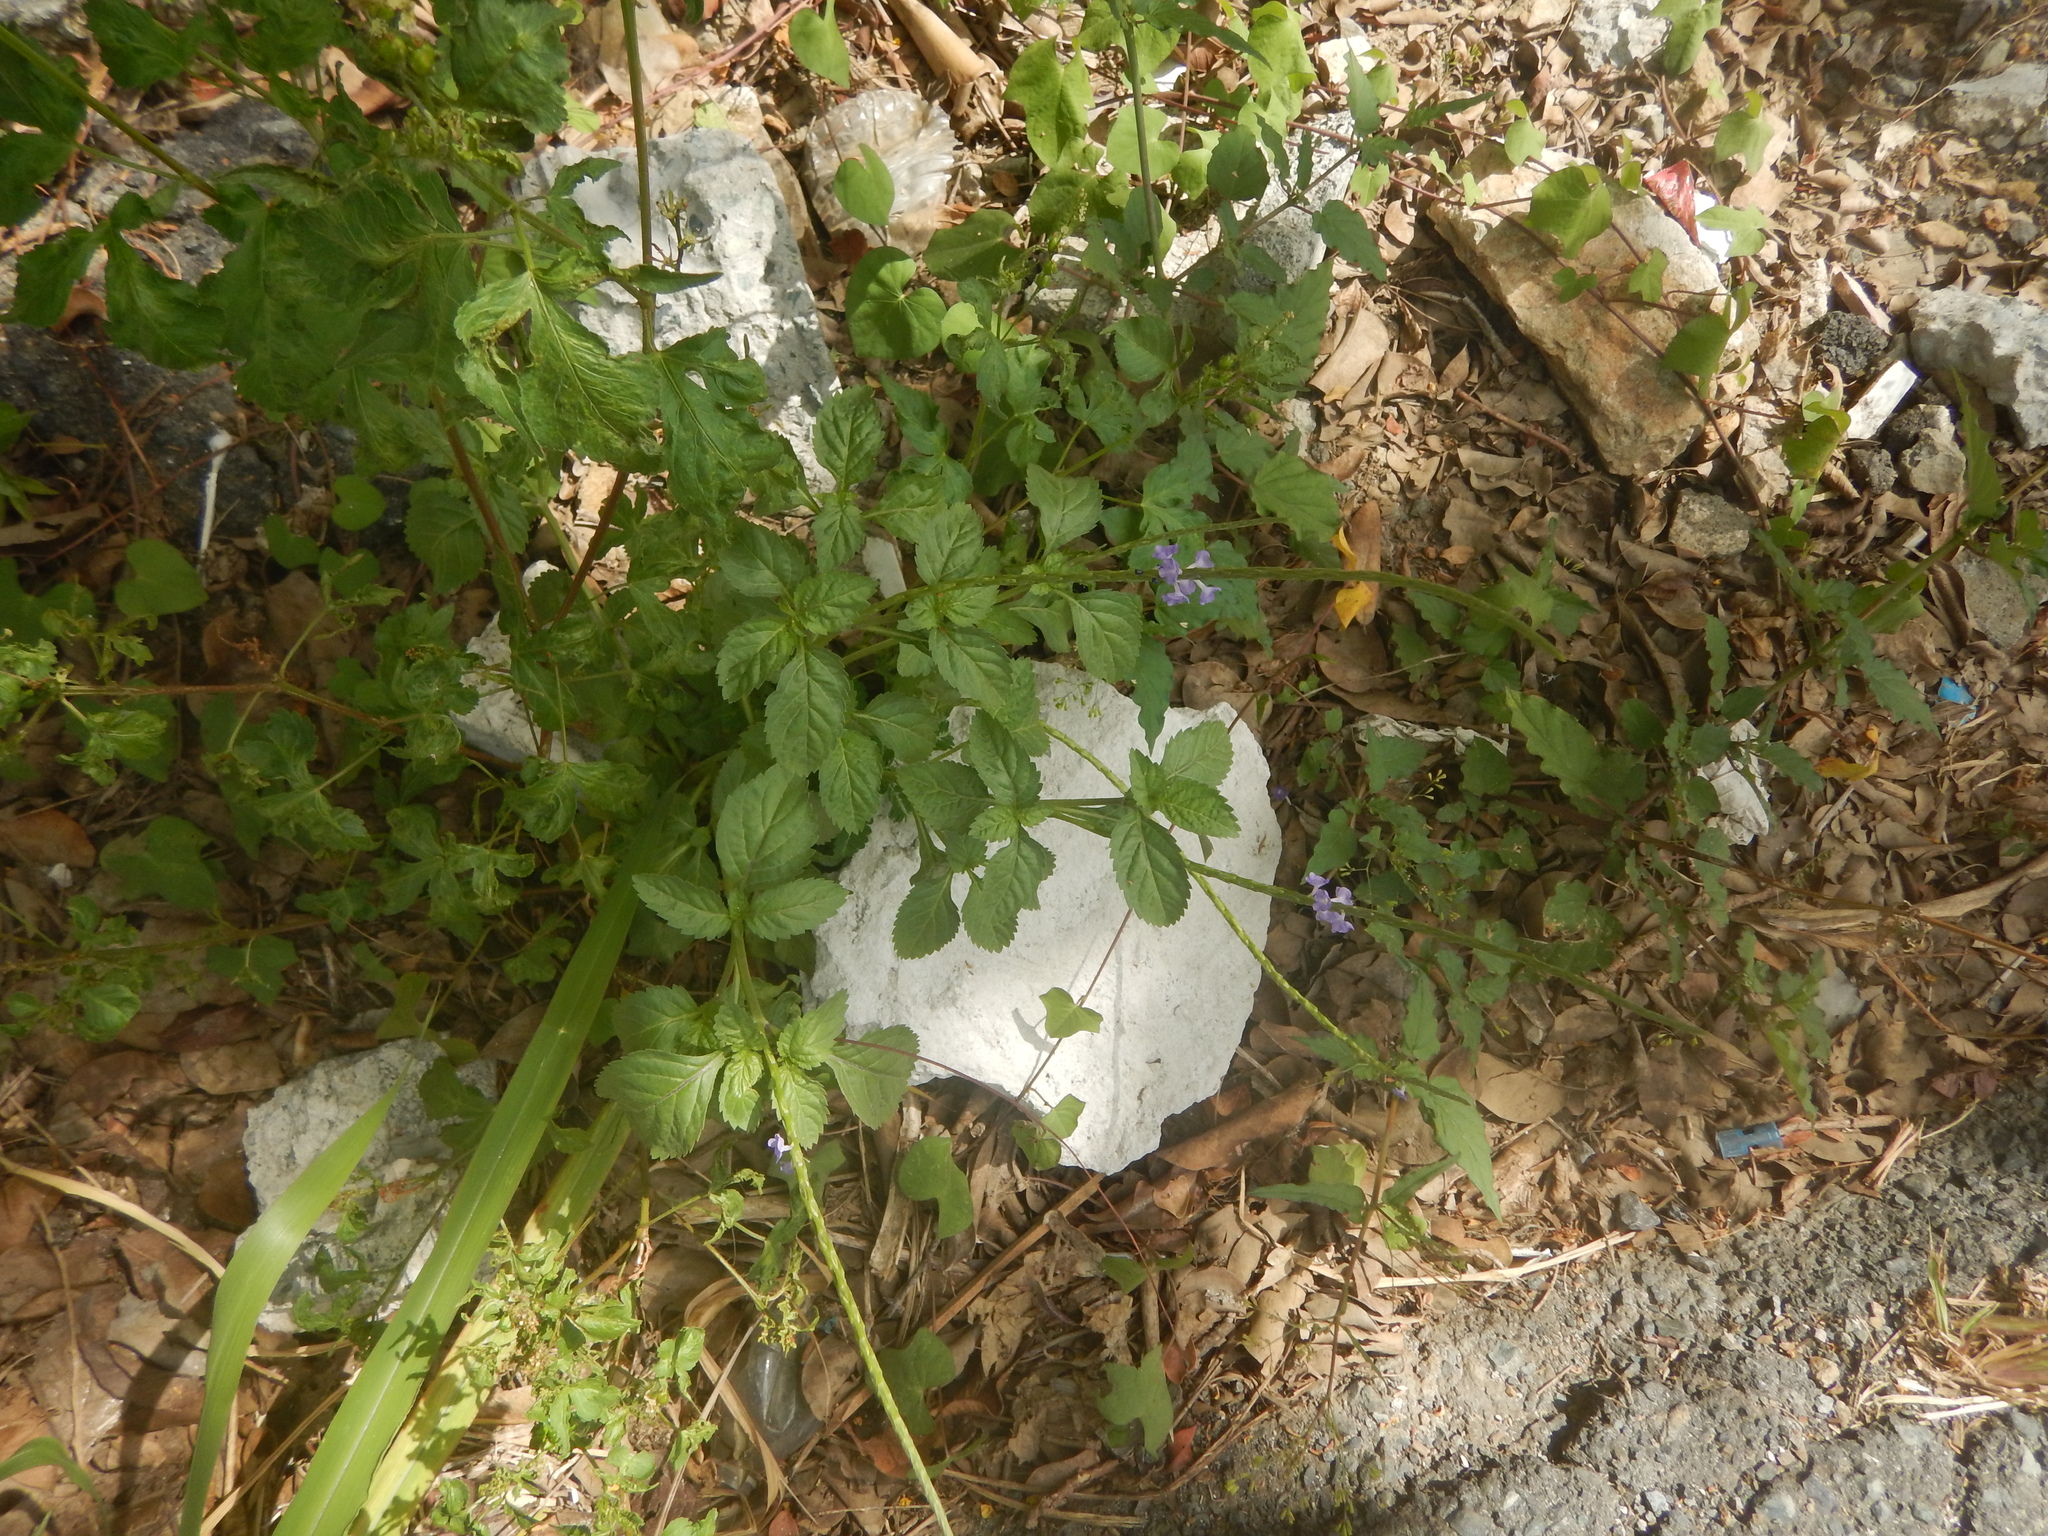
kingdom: Plantae
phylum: Tracheophyta
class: Magnoliopsida
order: Lamiales
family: Verbenaceae
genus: Stachytarpheta
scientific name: Stachytarpheta jamaicensis
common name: Light-blue snakeweed
